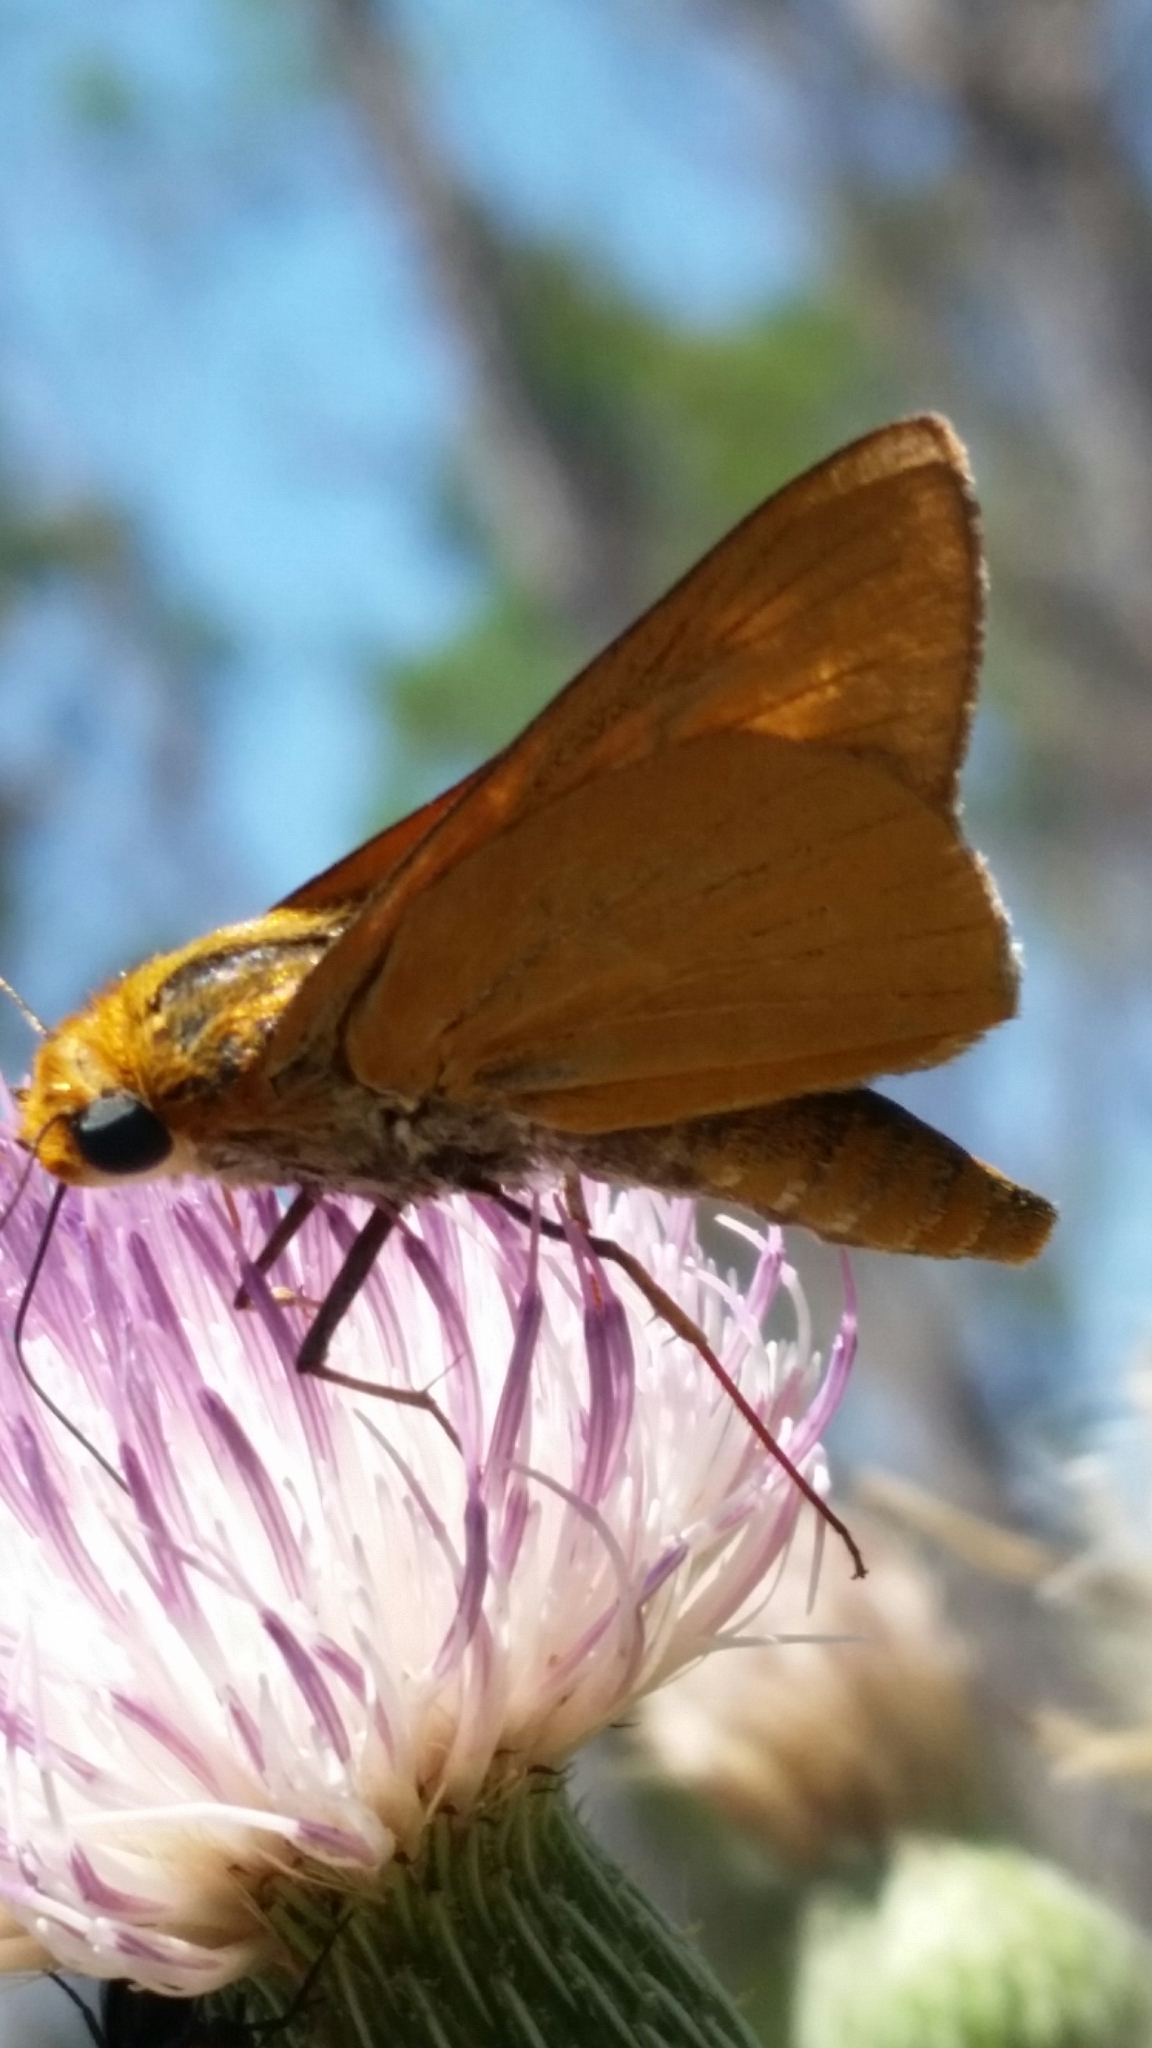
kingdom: Animalia
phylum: Arthropoda
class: Insecta
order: Lepidoptera
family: Hesperiidae
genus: Euphyes
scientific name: Euphyes arpa
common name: Palmetto skipper
